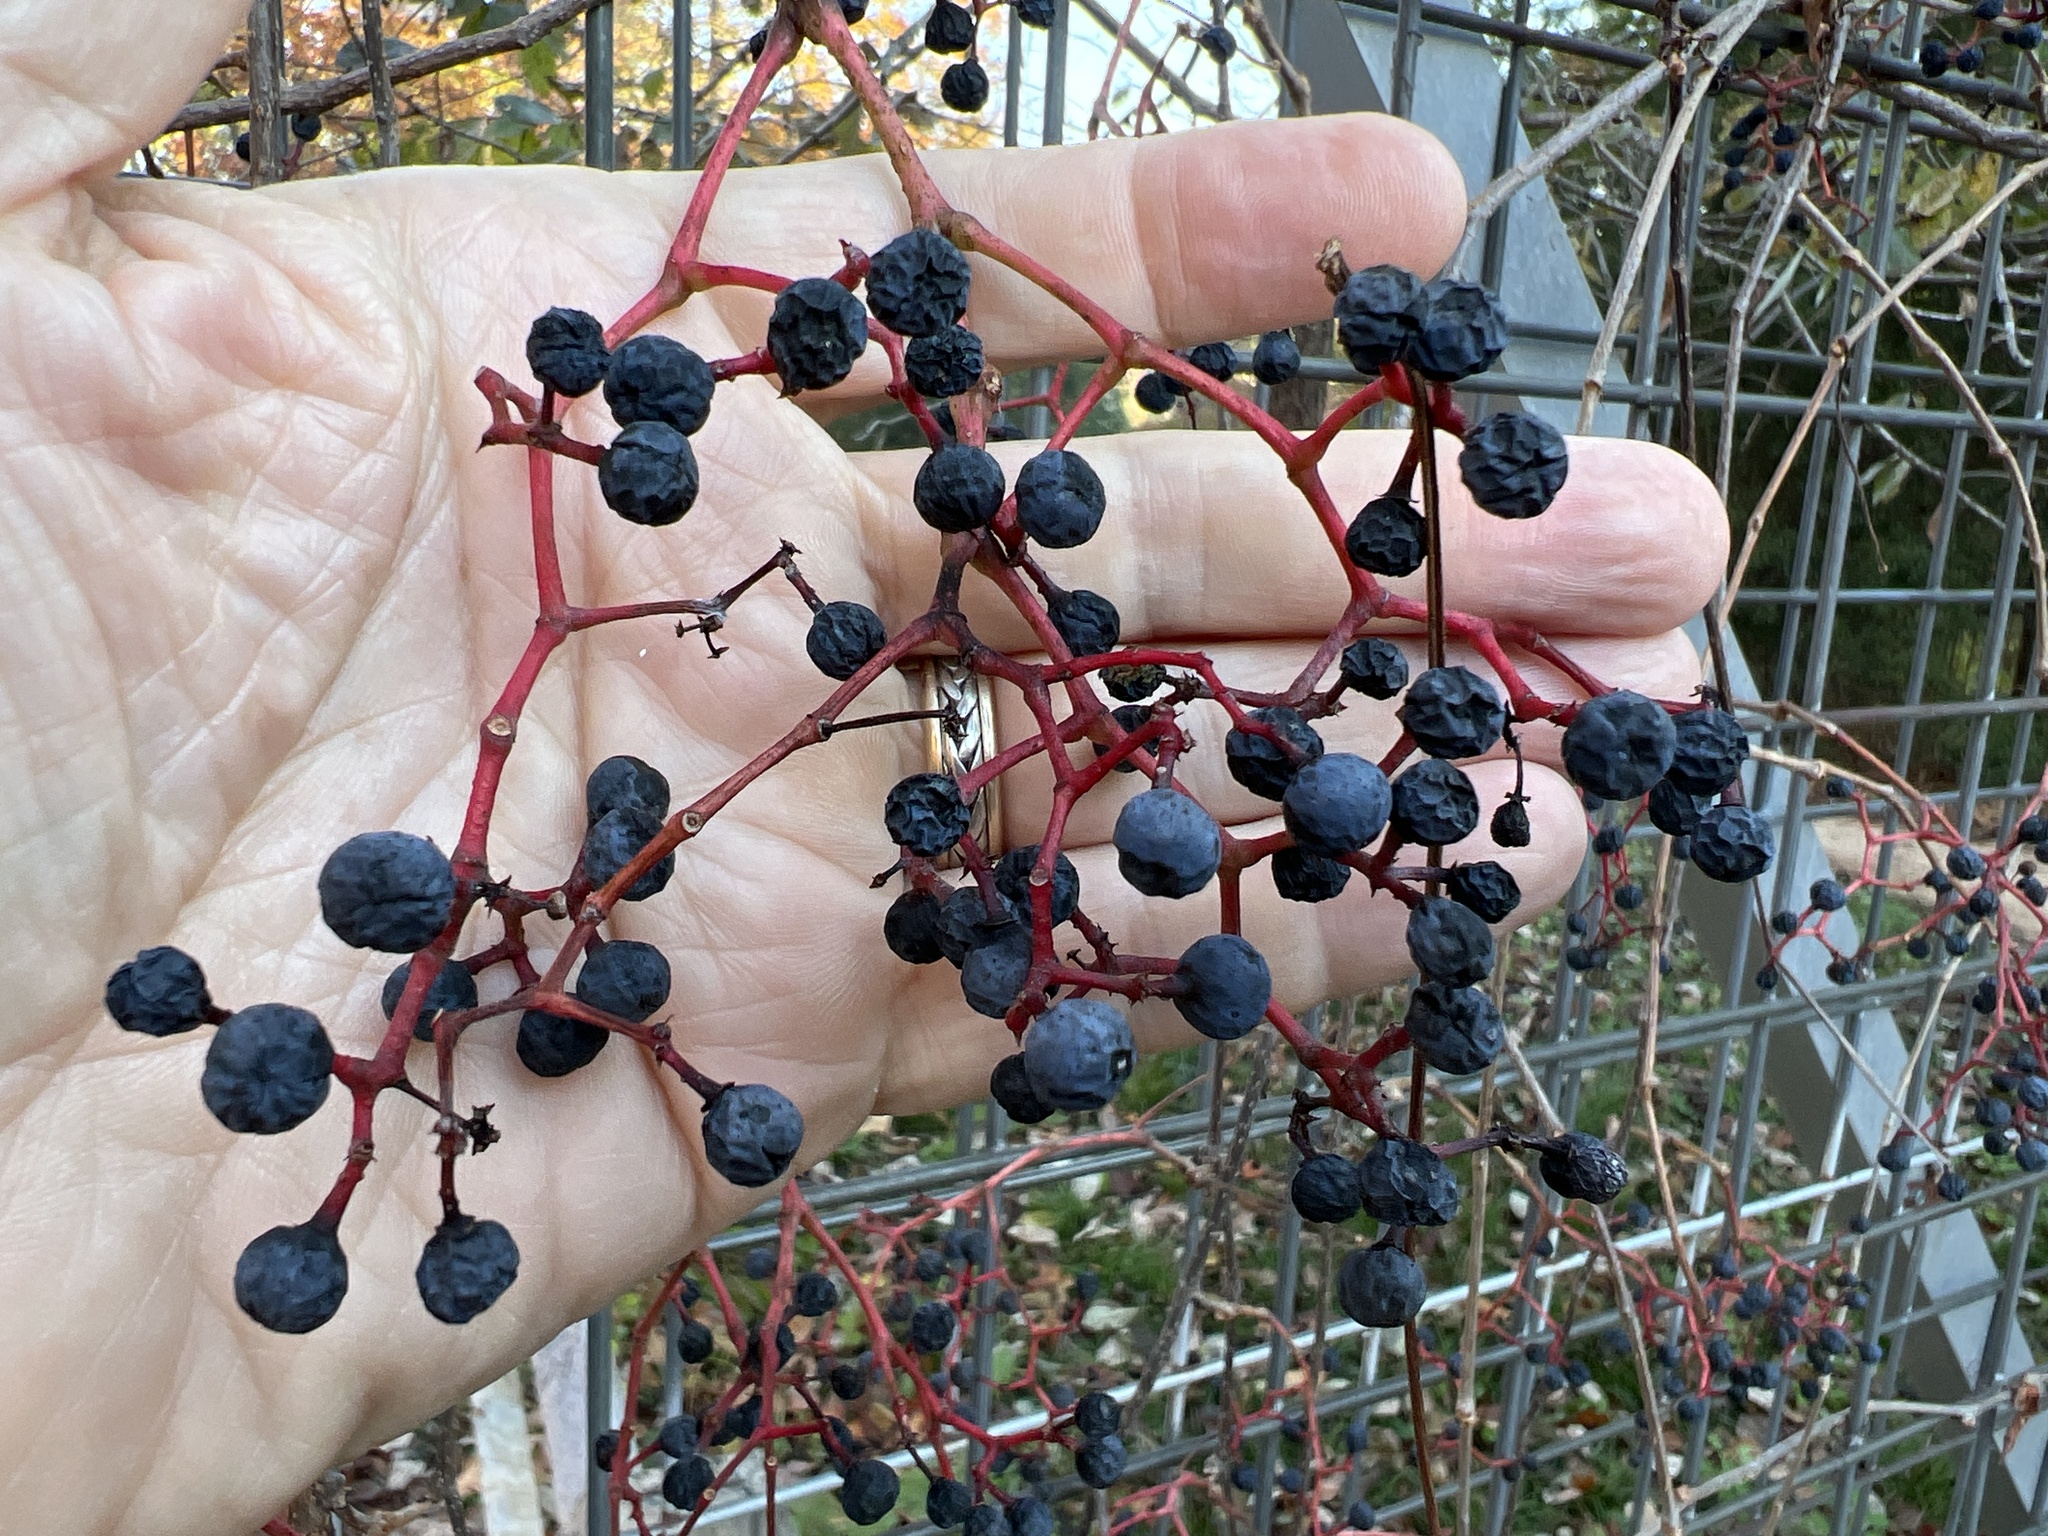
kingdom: Plantae
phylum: Tracheophyta
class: Magnoliopsida
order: Vitales
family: Vitaceae
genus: Parthenocissus
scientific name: Parthenocissus quinquefolia
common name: Virginia-creeper
